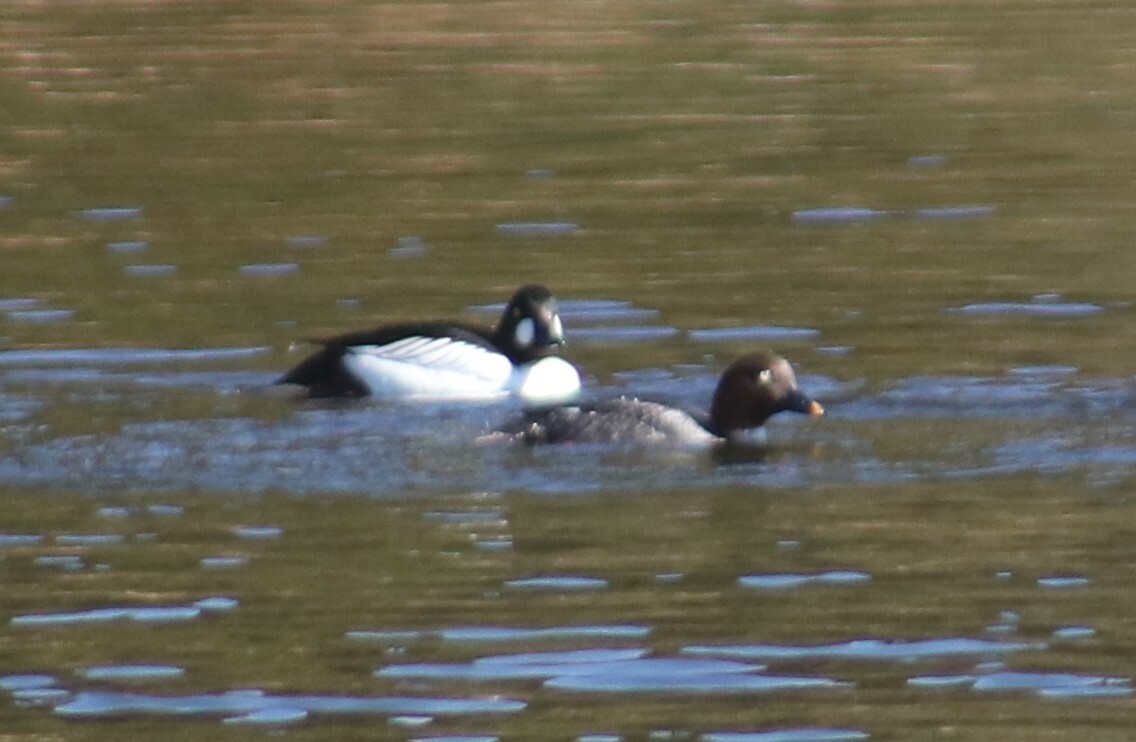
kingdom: Animalia
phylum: Chordata
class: Aves
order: Anseriformes
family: Anatidae
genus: Bucephala
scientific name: Bucephala clangula
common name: Common goldeneye
